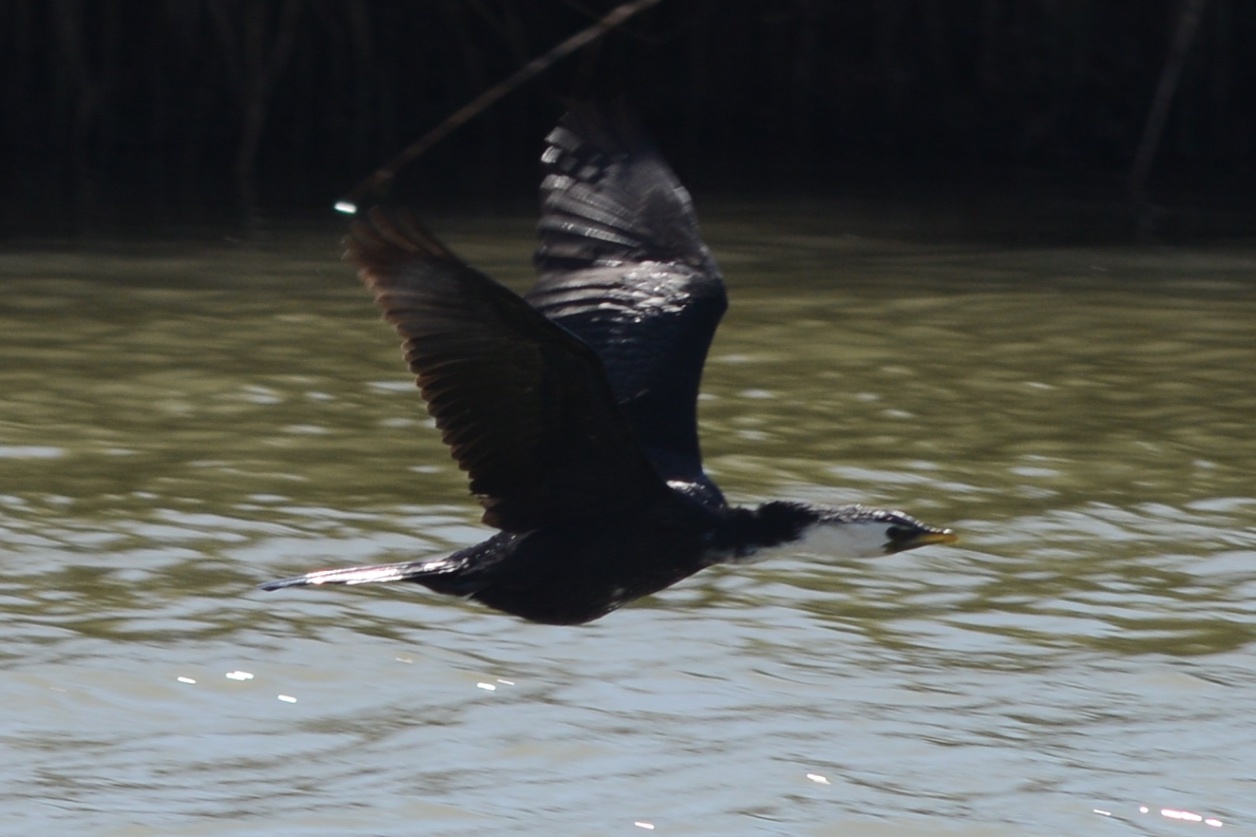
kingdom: Animalia
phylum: Chordata
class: Aves
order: Suliformes
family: Phalacrocoracidae
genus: Microcarbo
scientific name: Microcarbo melanoleucos
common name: Little pied cormorant
